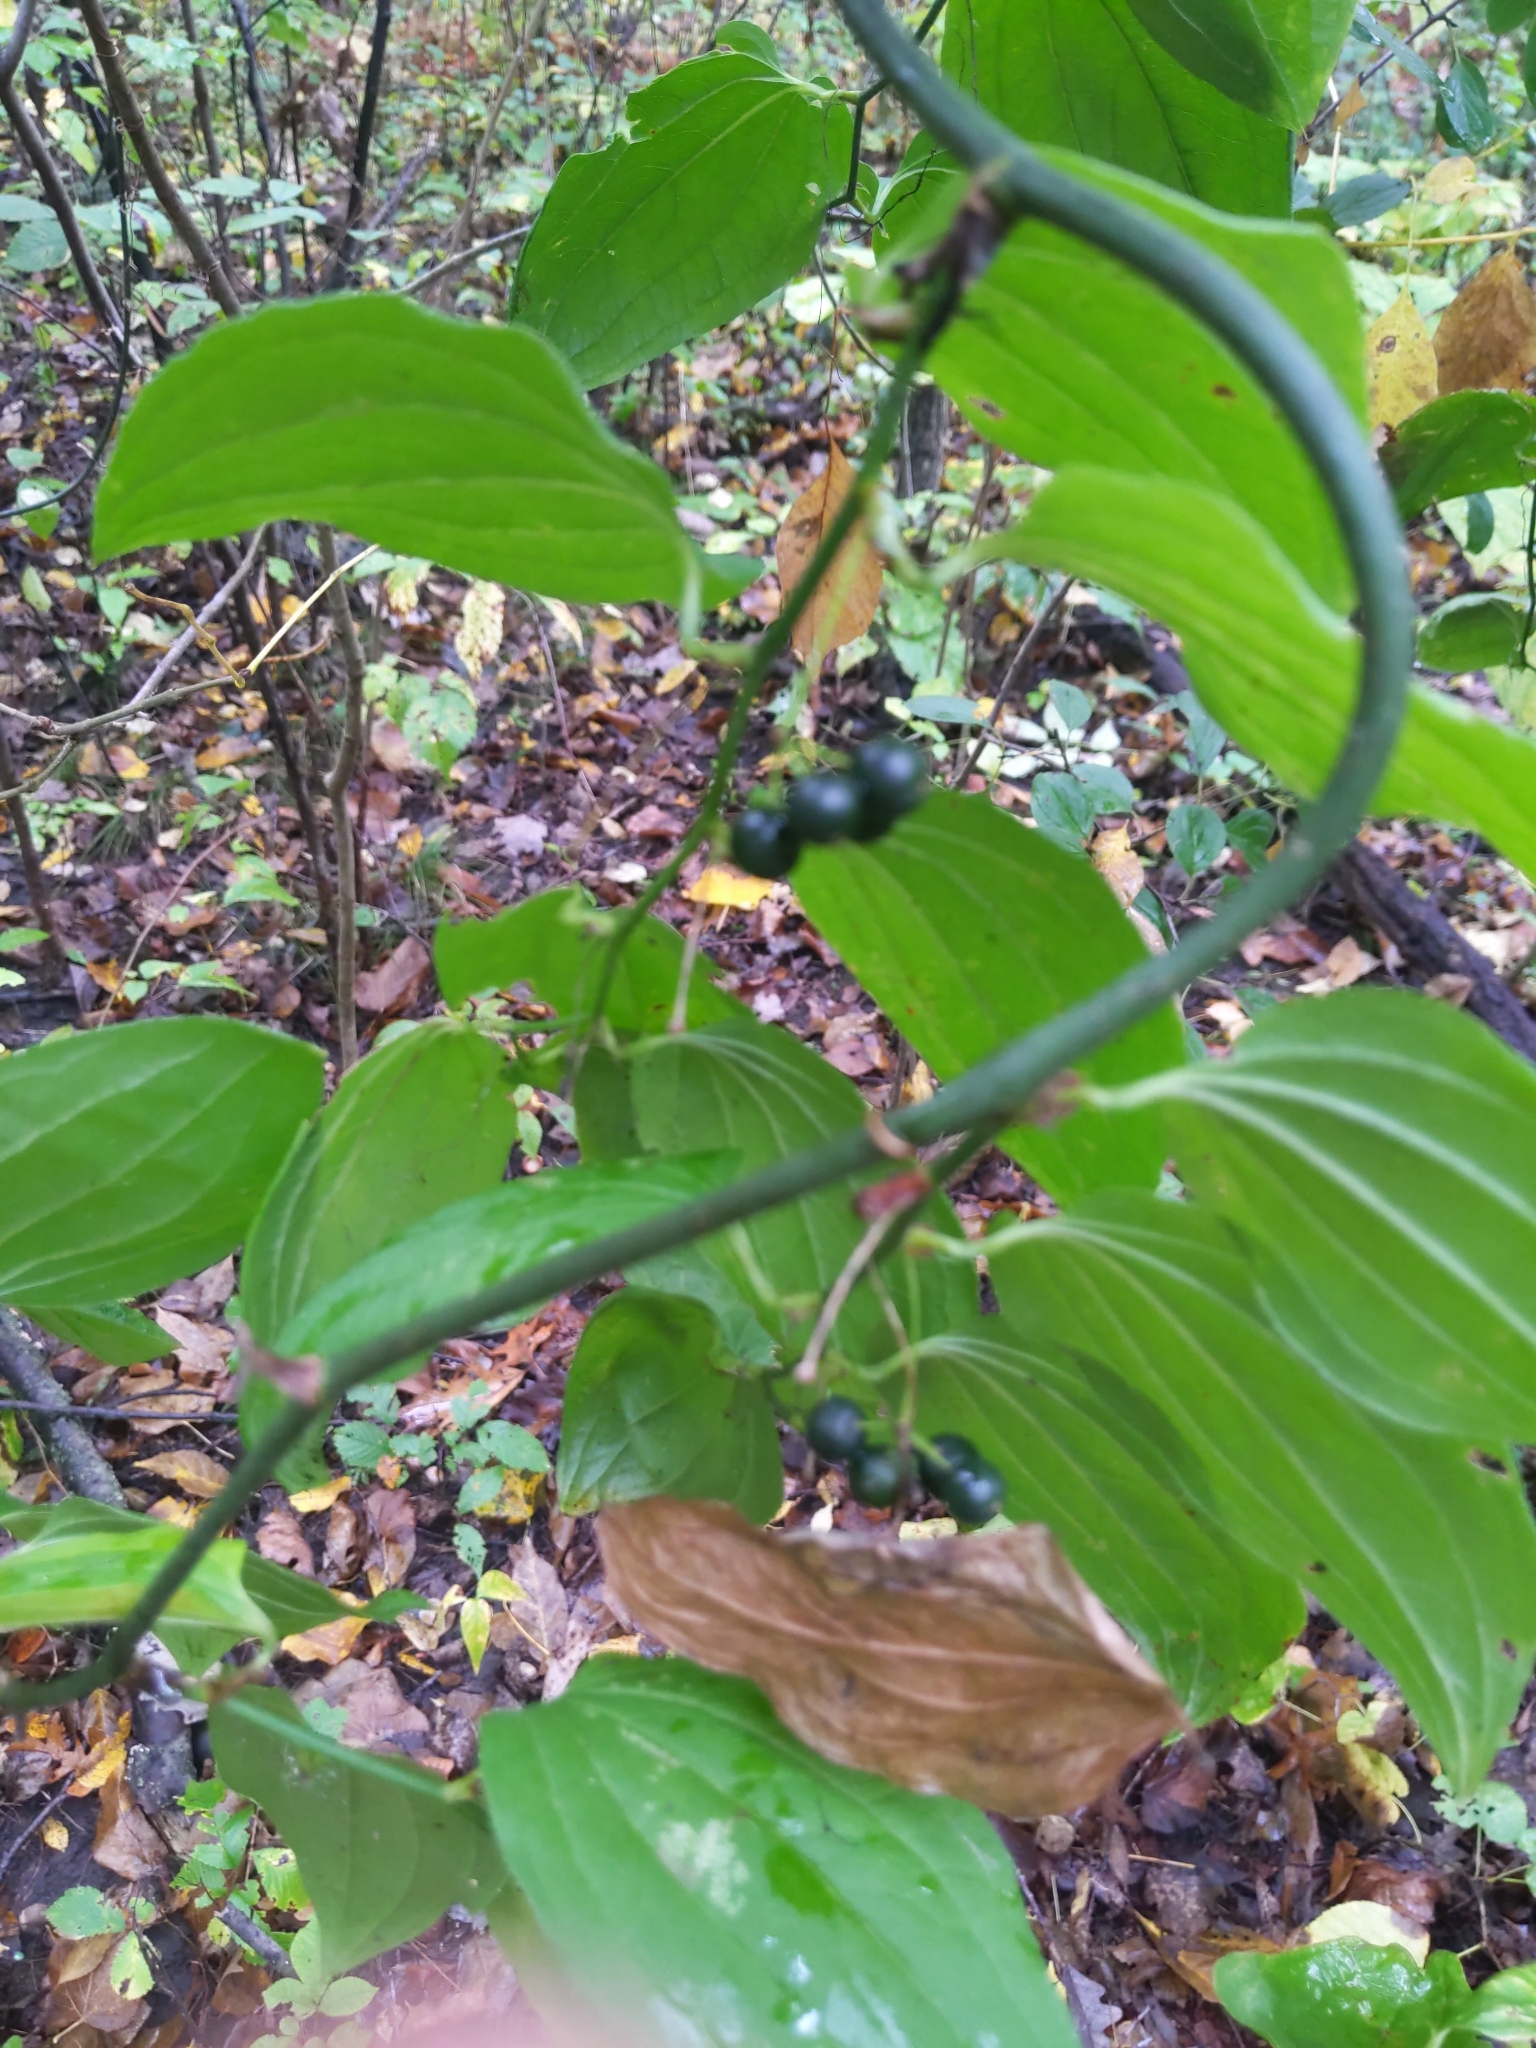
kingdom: Plantae
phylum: Tracheophyta
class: Liliopsida
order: Liliales
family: Smilacaceae
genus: Smilax
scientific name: Smilax tamnoides
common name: Hellfetter
